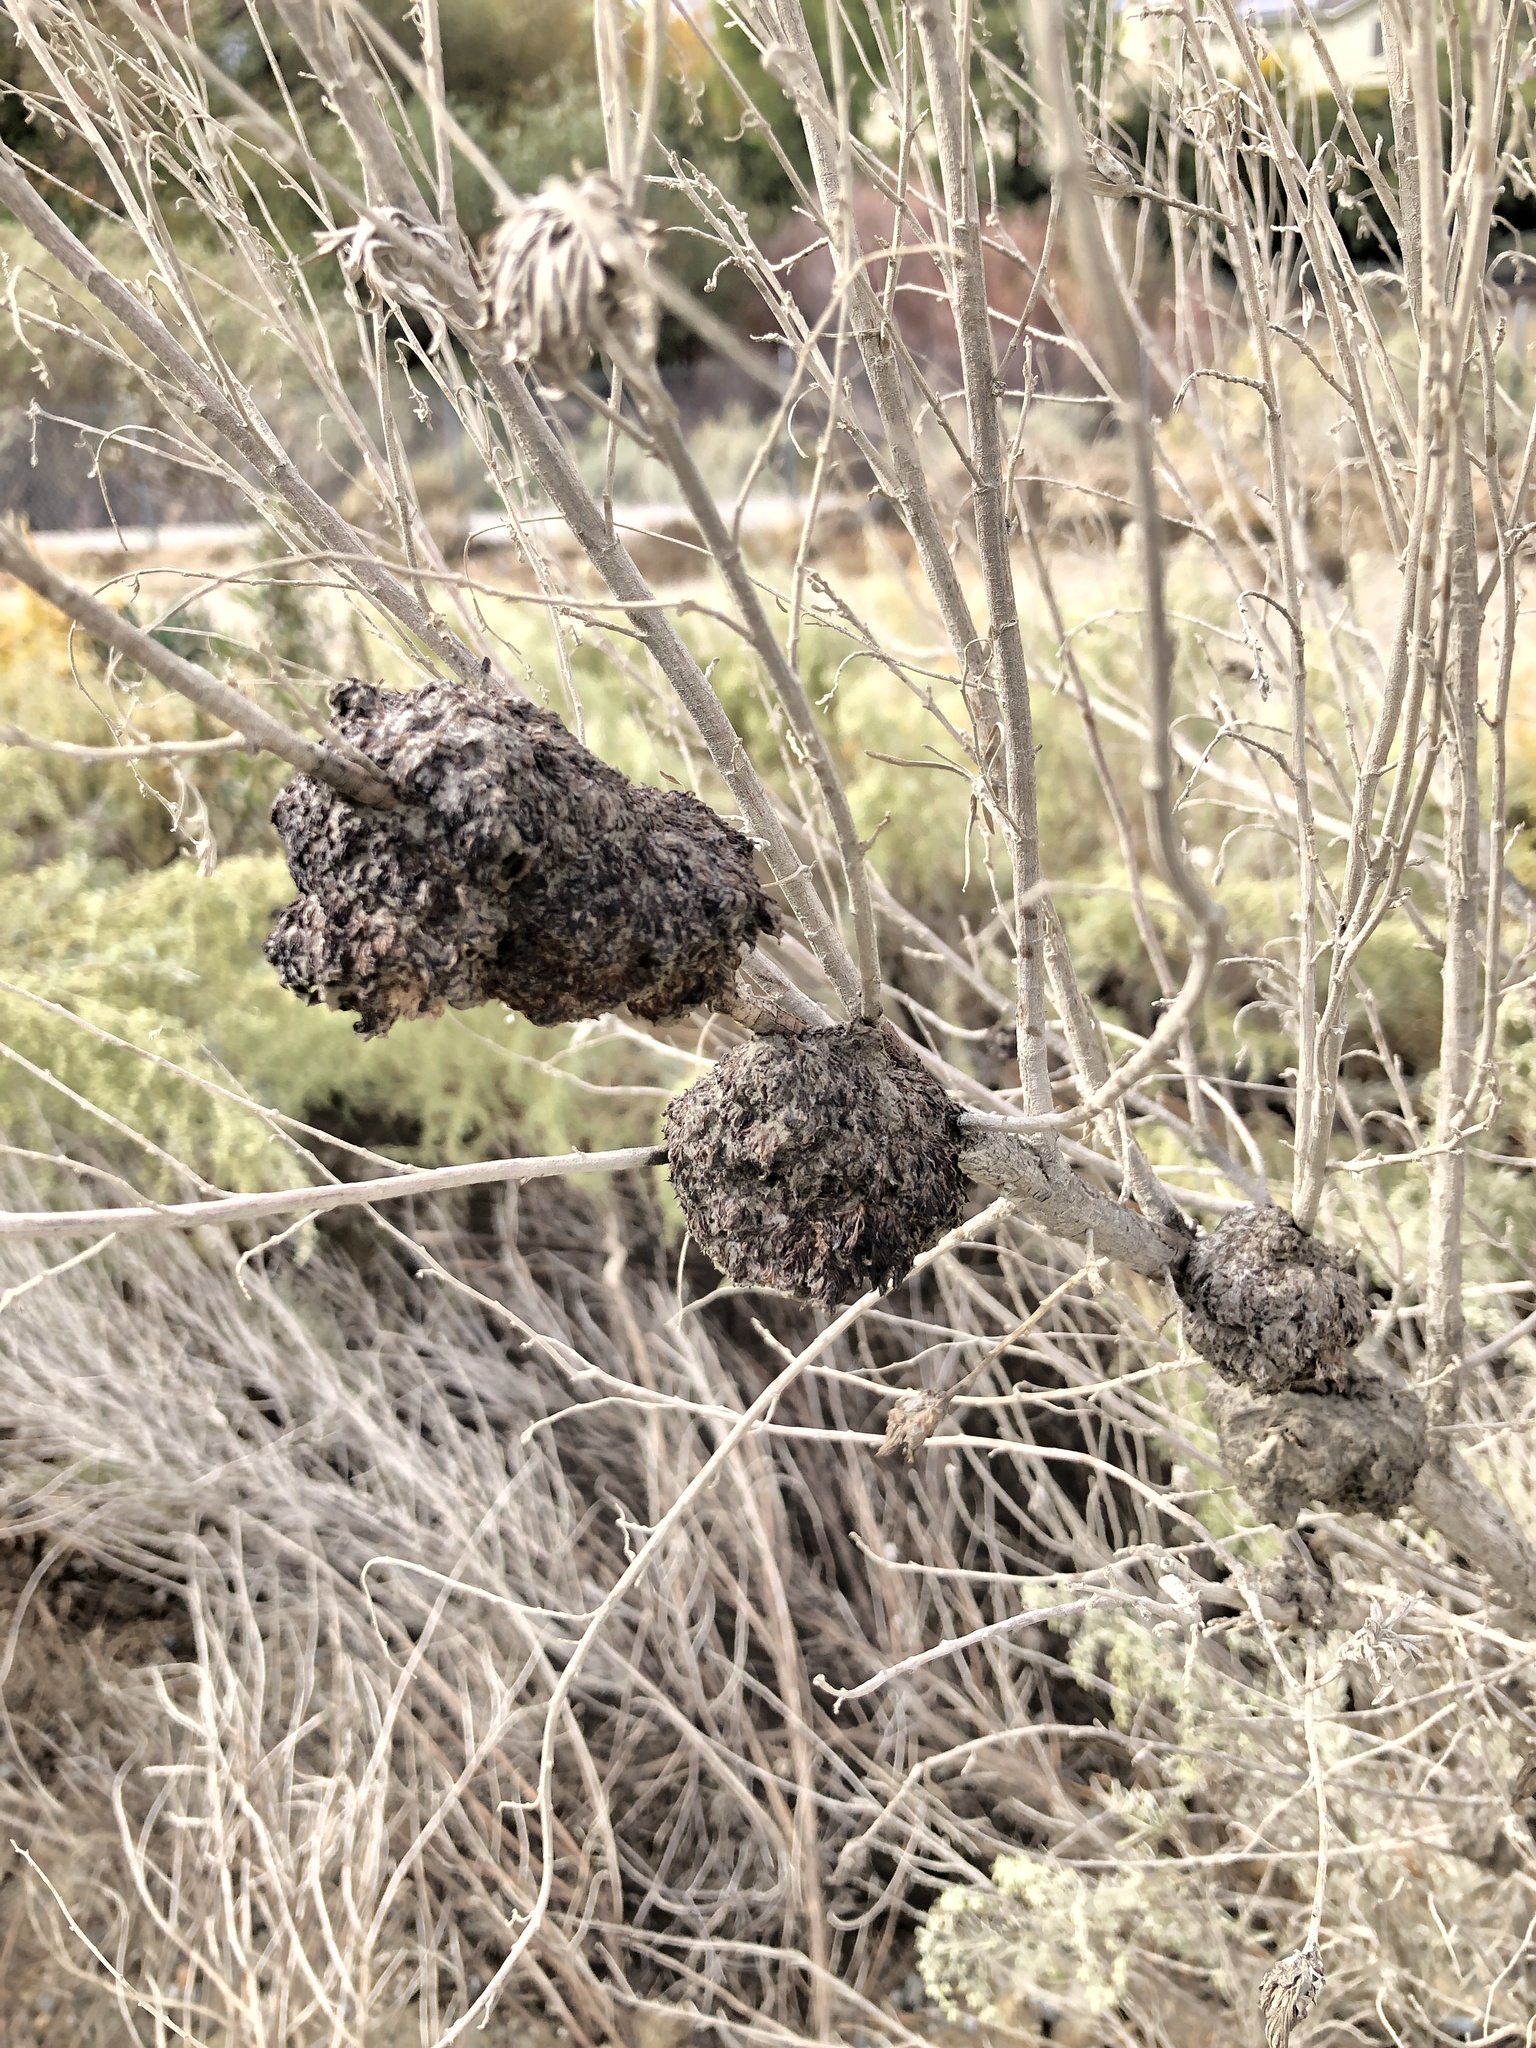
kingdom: Animalia
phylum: Arthropoda
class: Insecta
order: Diptera
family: Cecidomyiidae
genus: Rhopalomyia
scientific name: Rhopalomyia medusa
